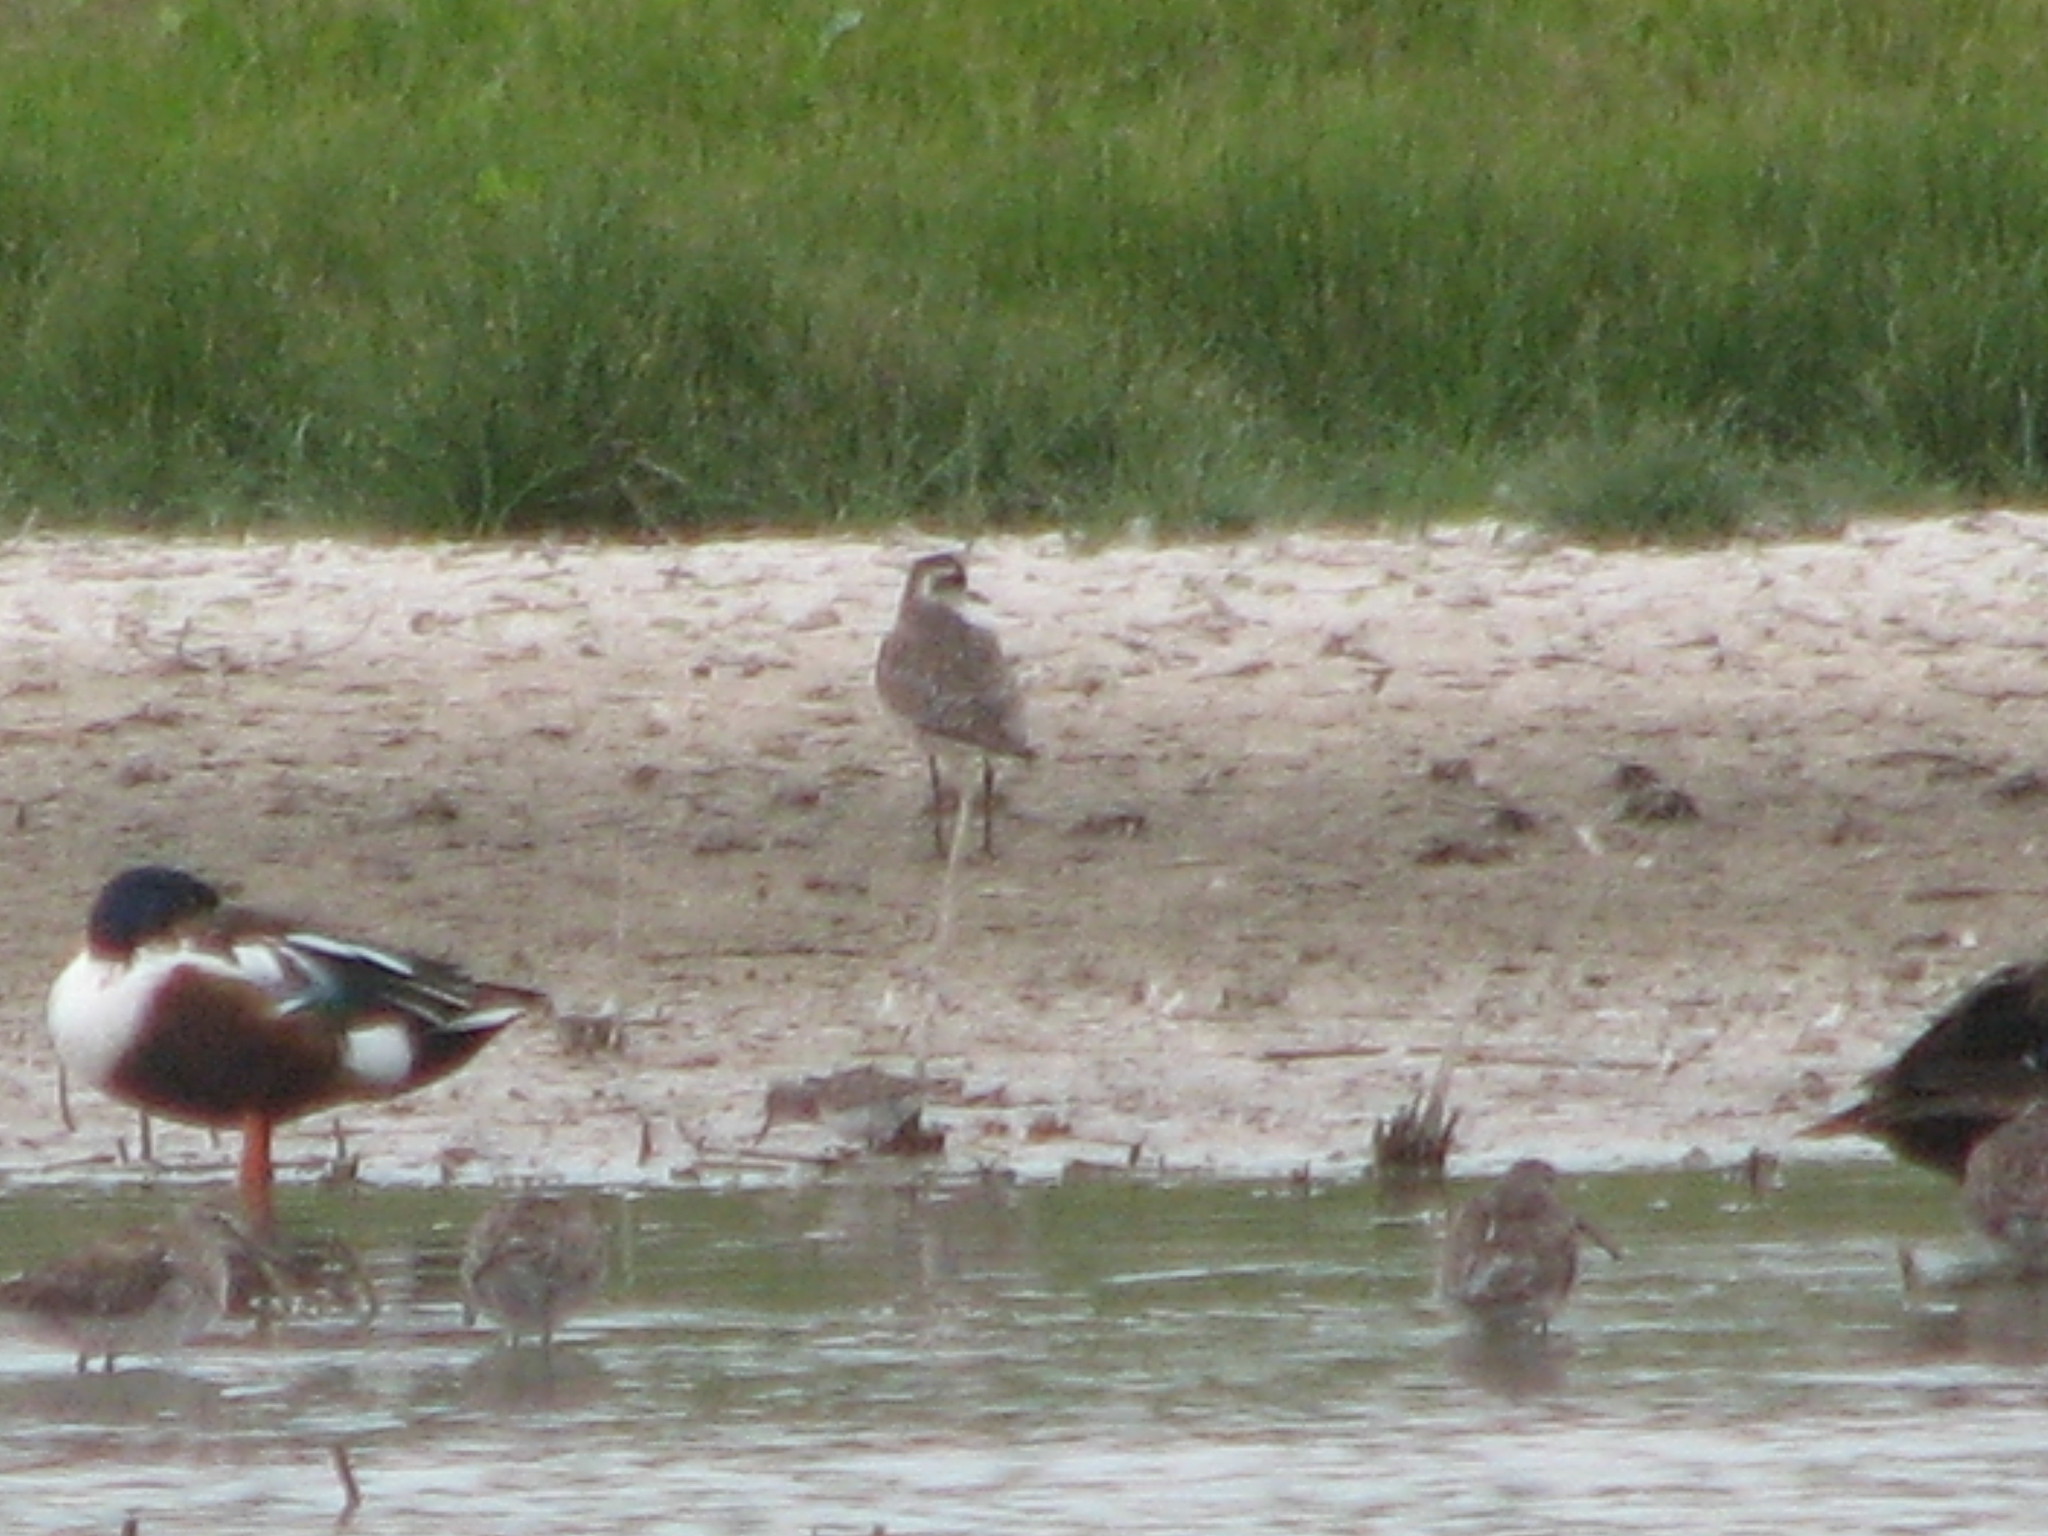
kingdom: Animalia
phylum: Chordata
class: Aves
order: Charadriiformes
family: Charadriidae
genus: Pluvialis
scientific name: Pluvialis dominica
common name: American golden plover
